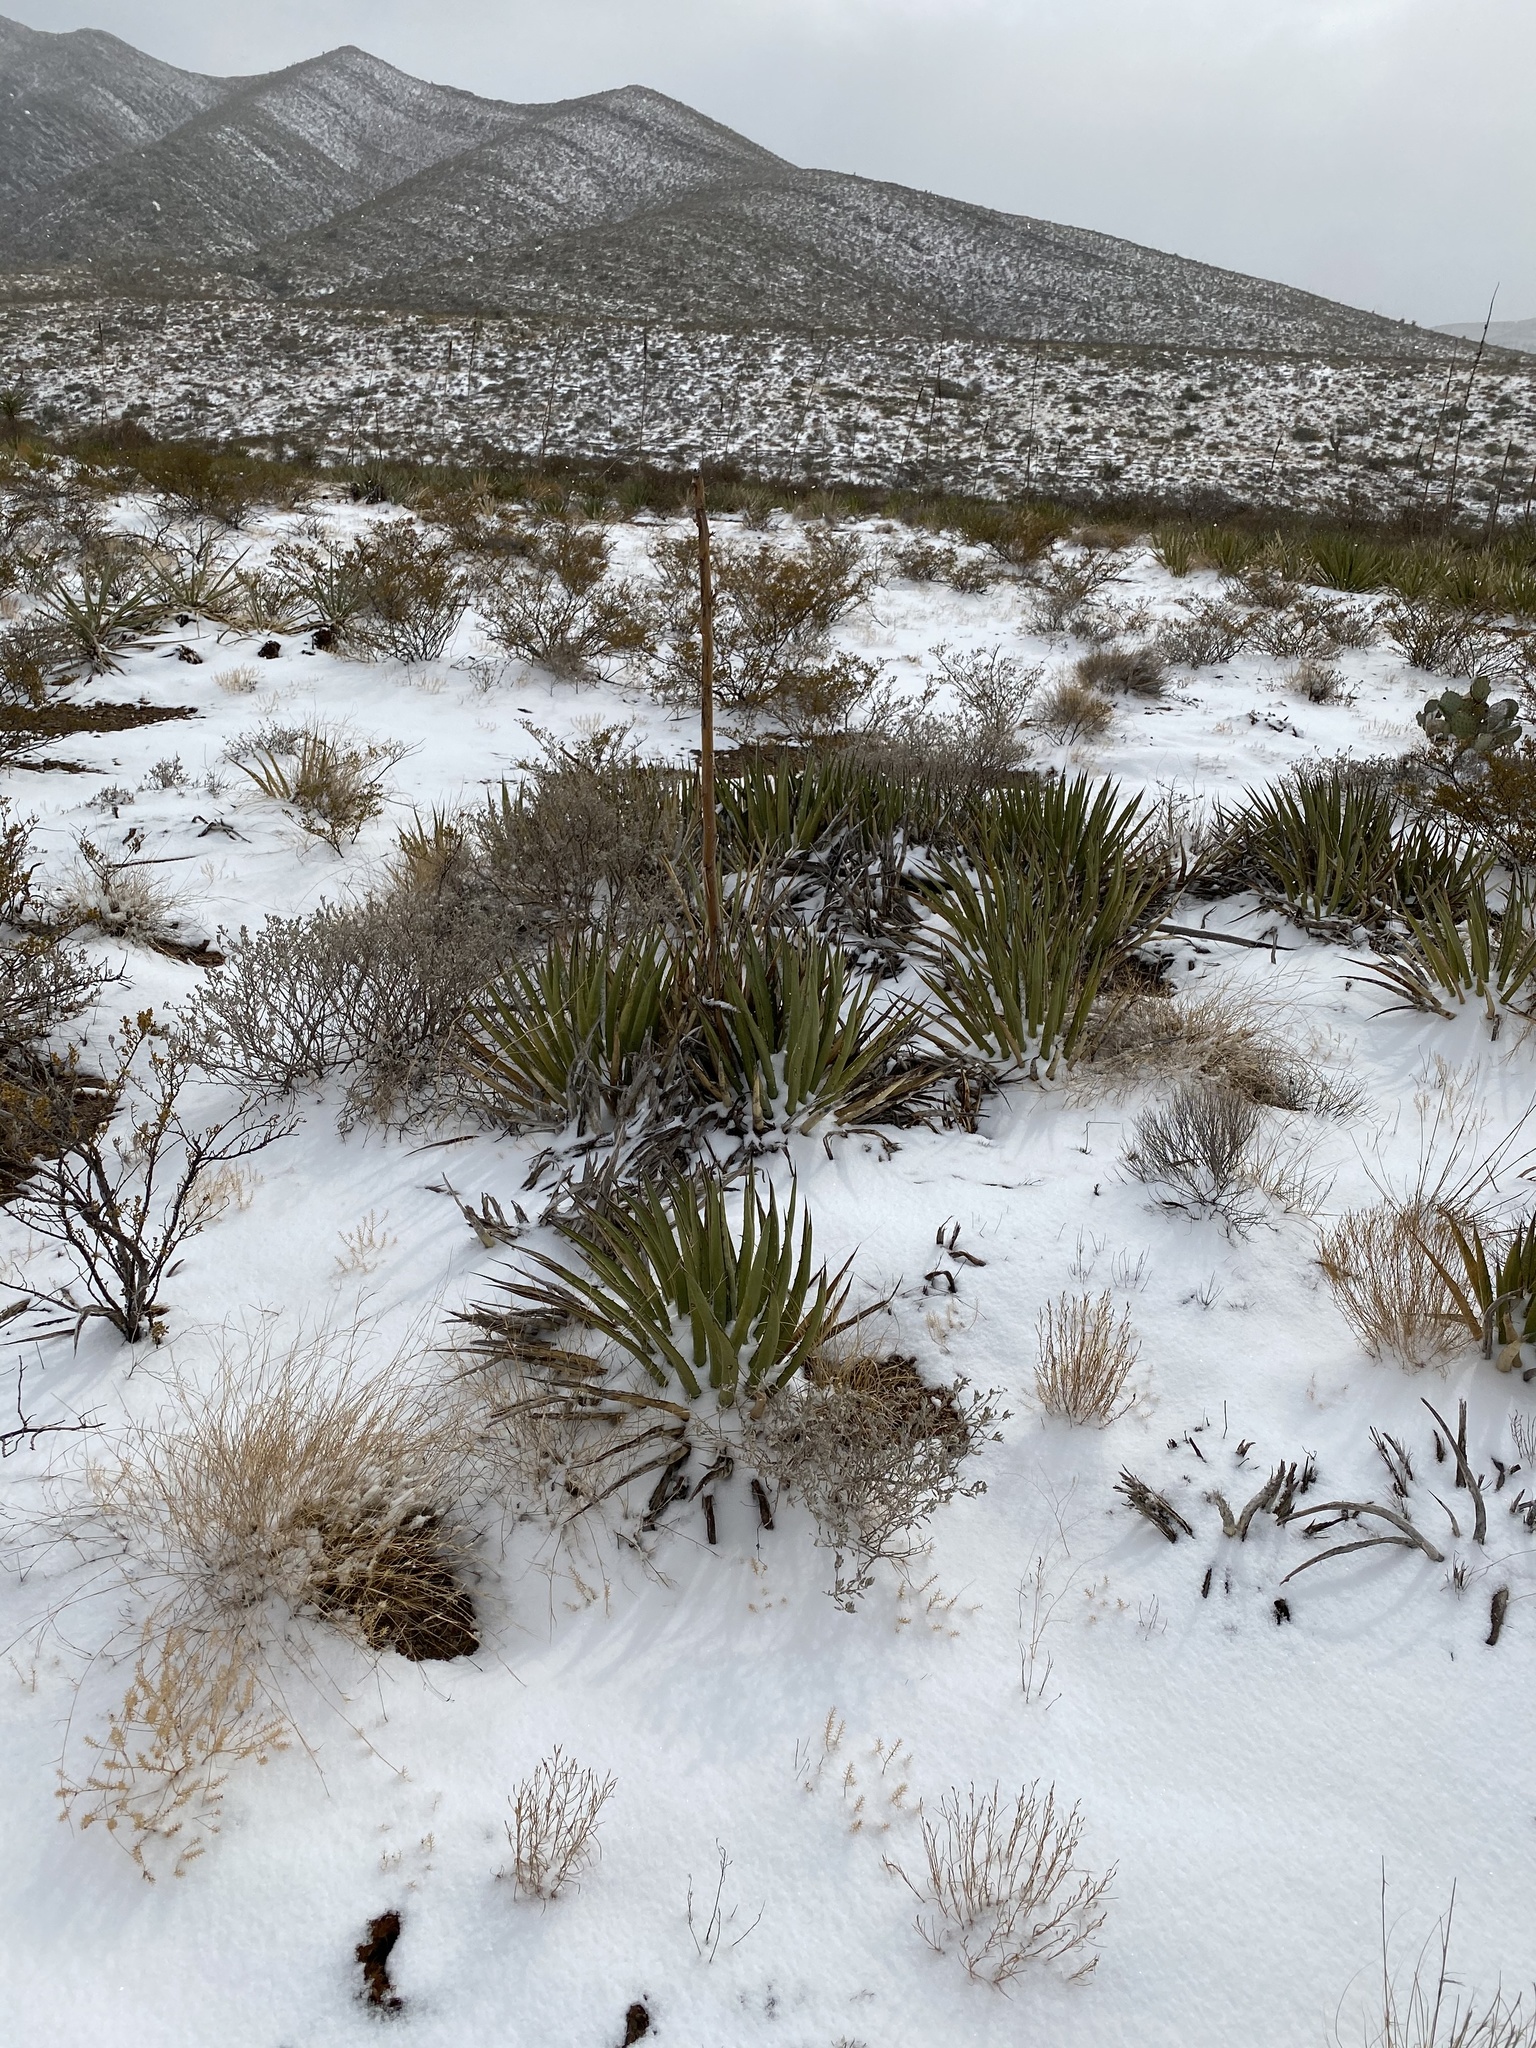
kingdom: Plantae
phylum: Tracheophyta
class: Liliopsida
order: Asparagales
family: Asparagaceae
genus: Agave
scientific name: Agave lechuguilla
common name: Lecheguilla agave
